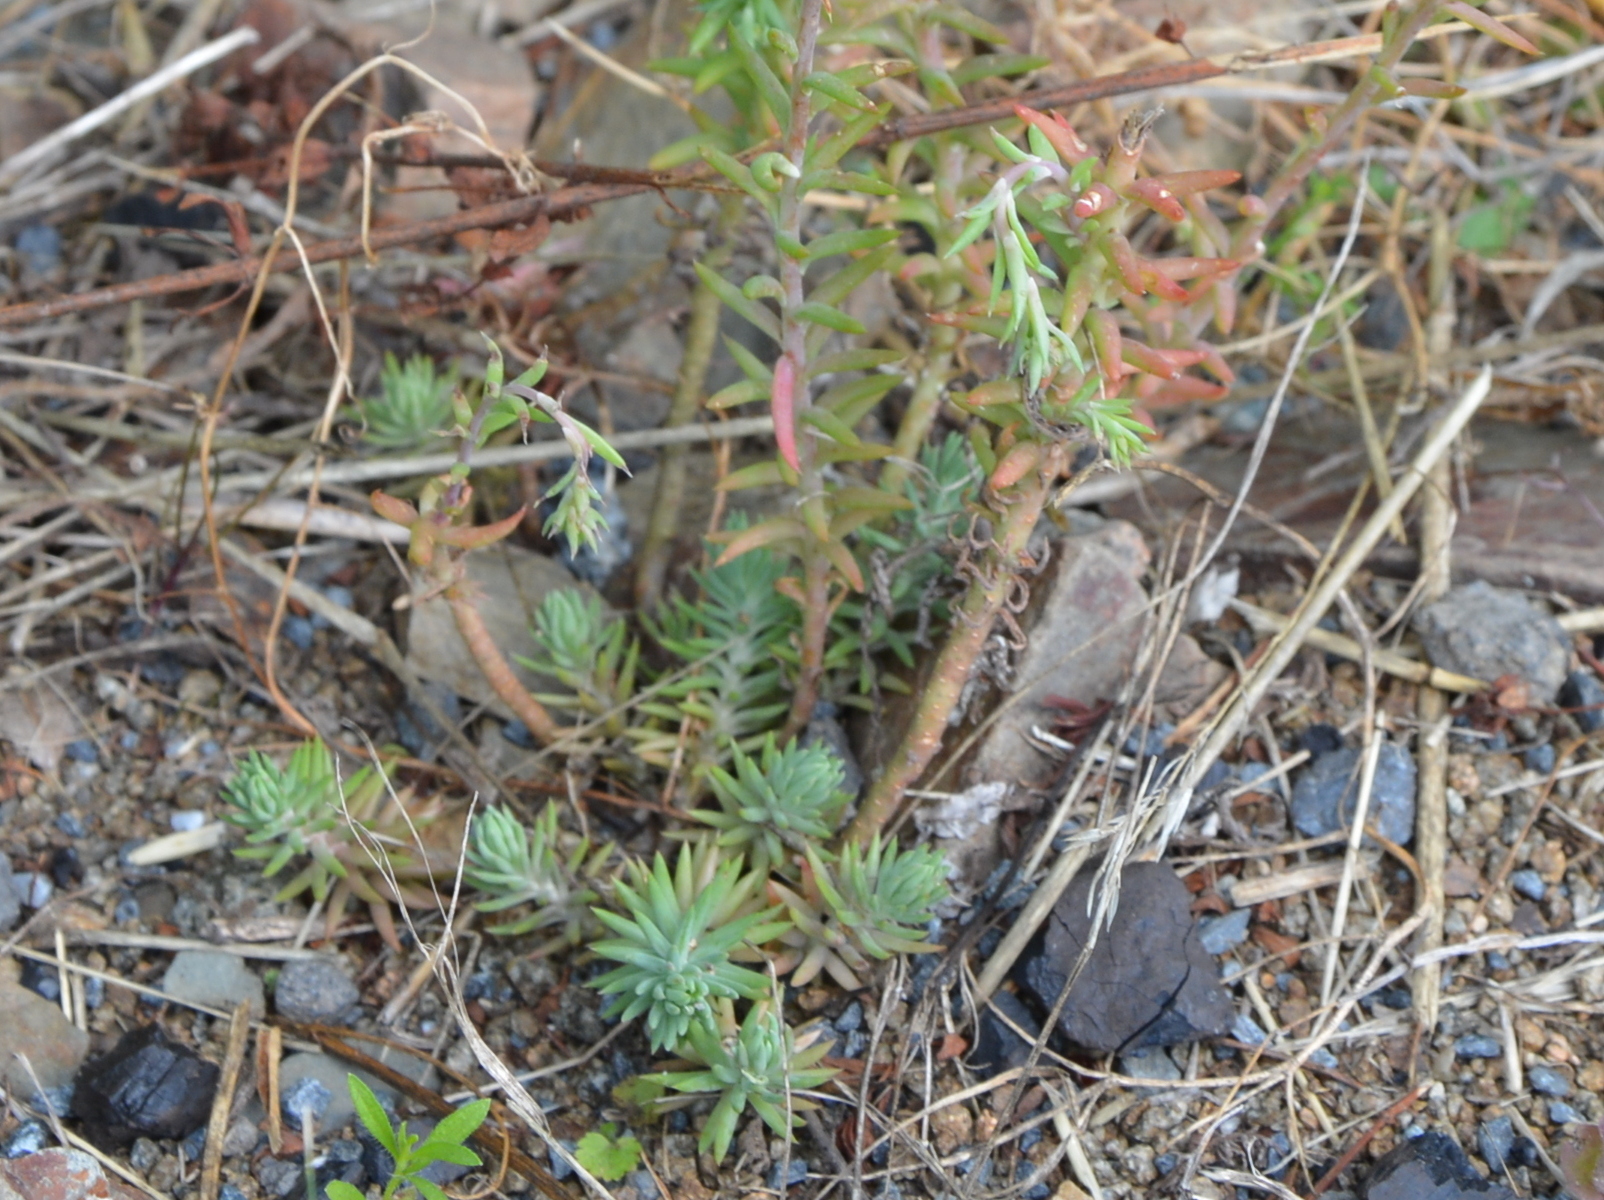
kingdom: Plantae
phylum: Tracheophyta
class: Magnoliopsida
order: Saxifragales
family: Crassulaceae
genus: Petrosedum
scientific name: Petrosedum rupestre
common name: Jenny's stonecrop
